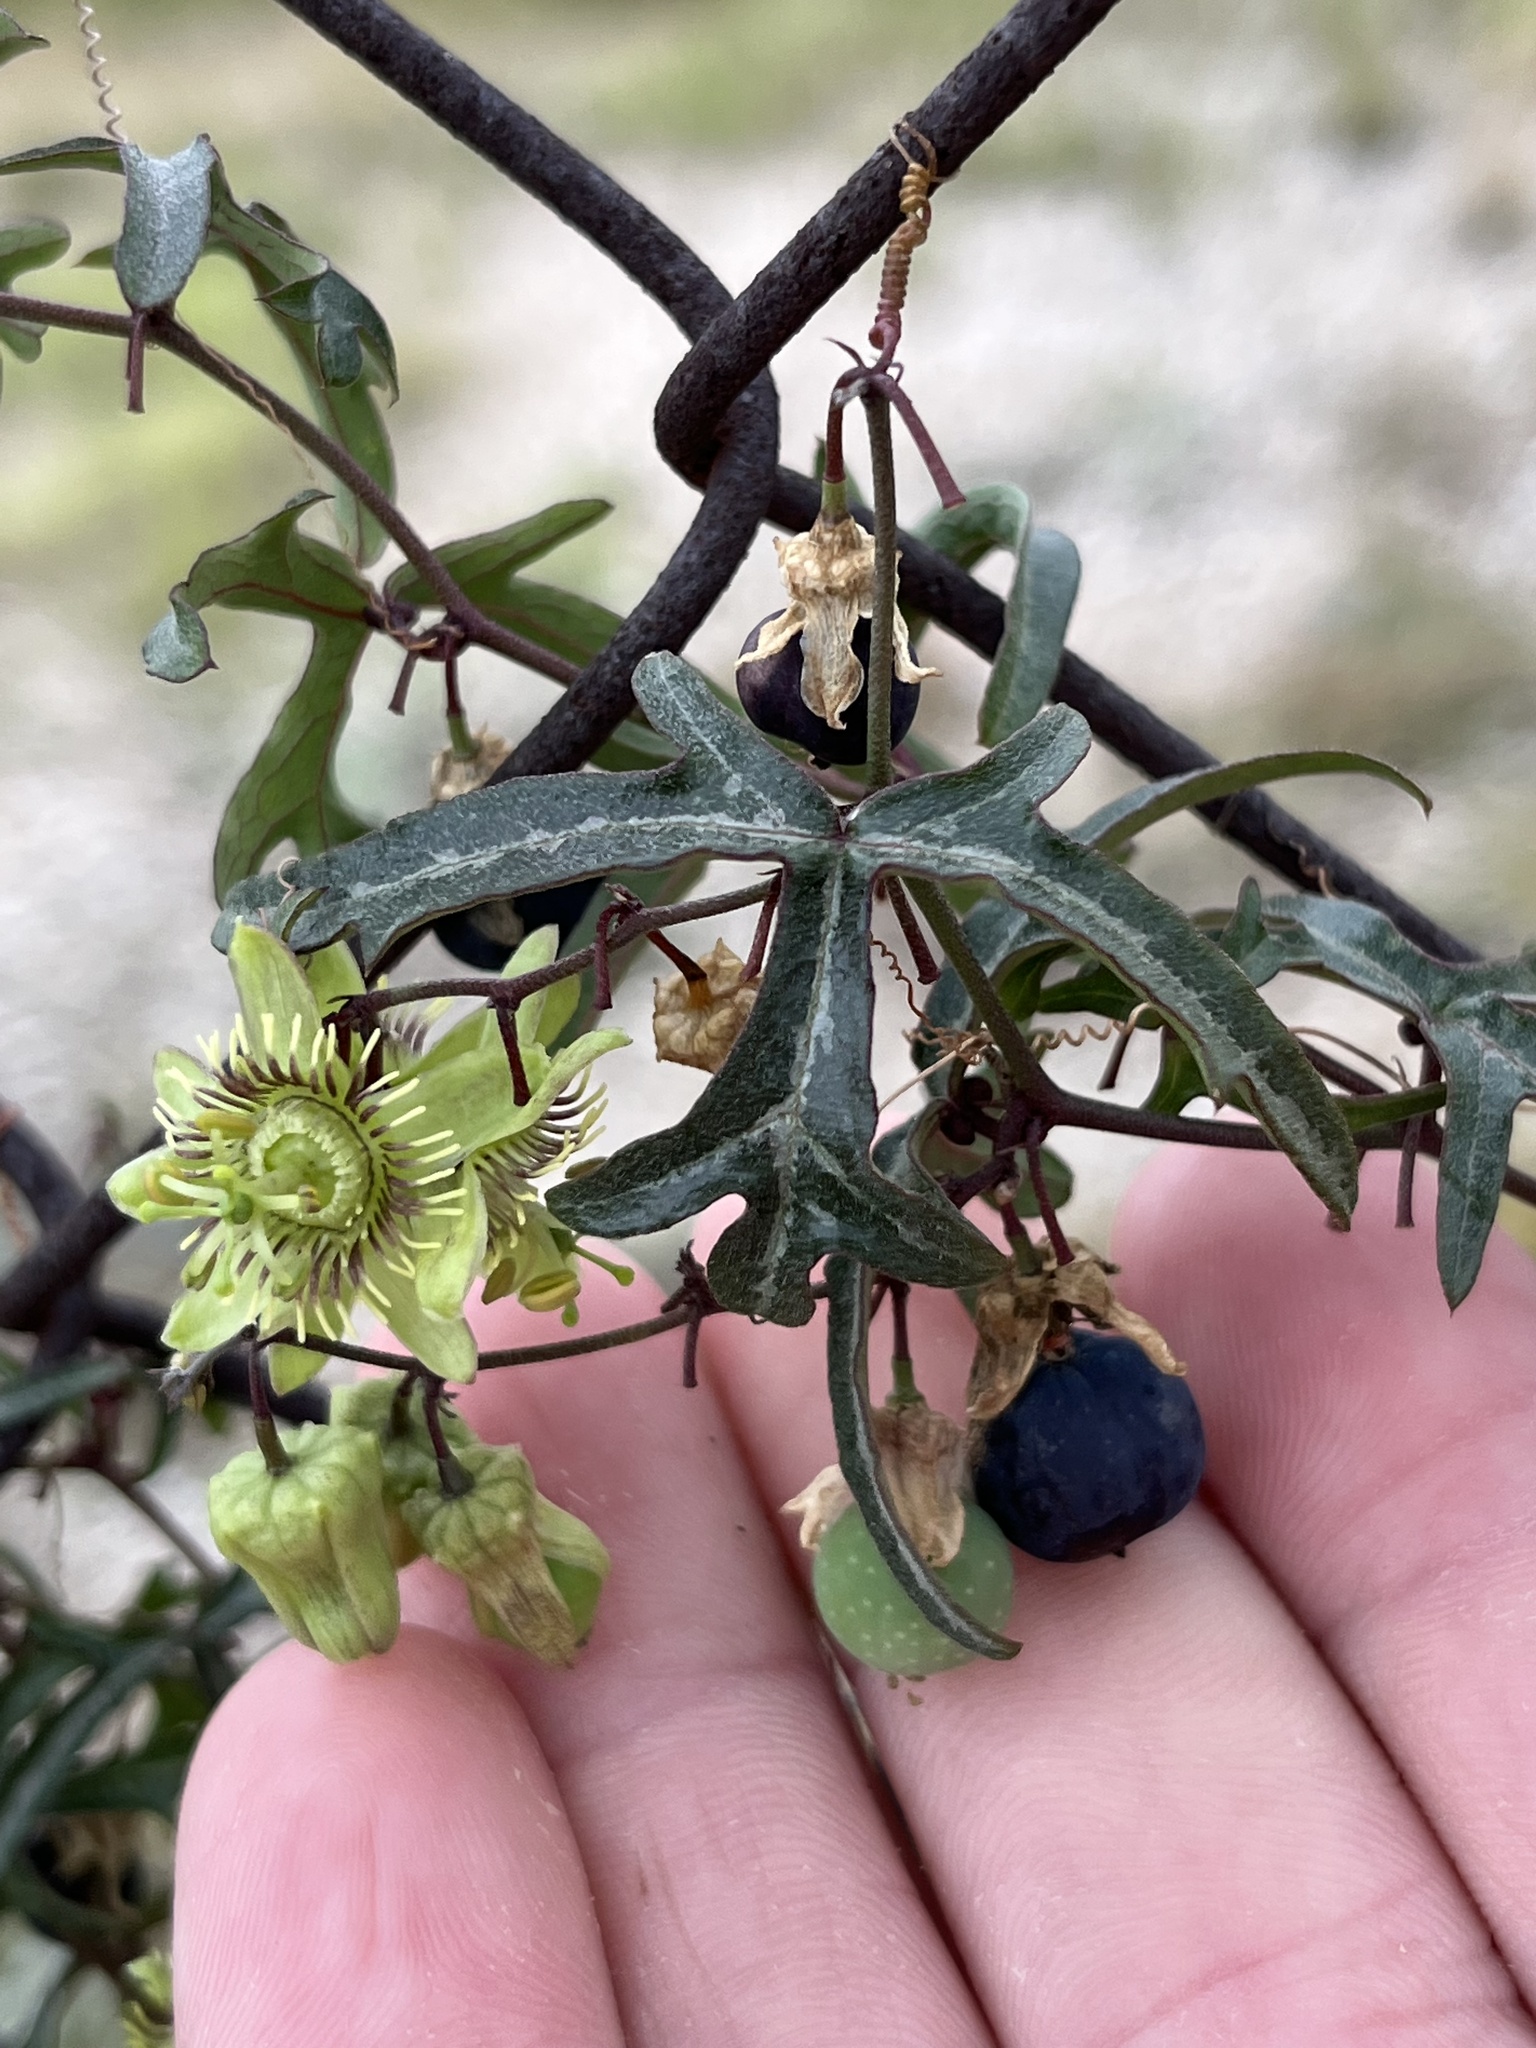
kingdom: Plantae
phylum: Tracheophyta
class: Magnoliopsida
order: Malpighiales
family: Passifloraceae
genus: Passiflora
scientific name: Passiflora tenuiloba
